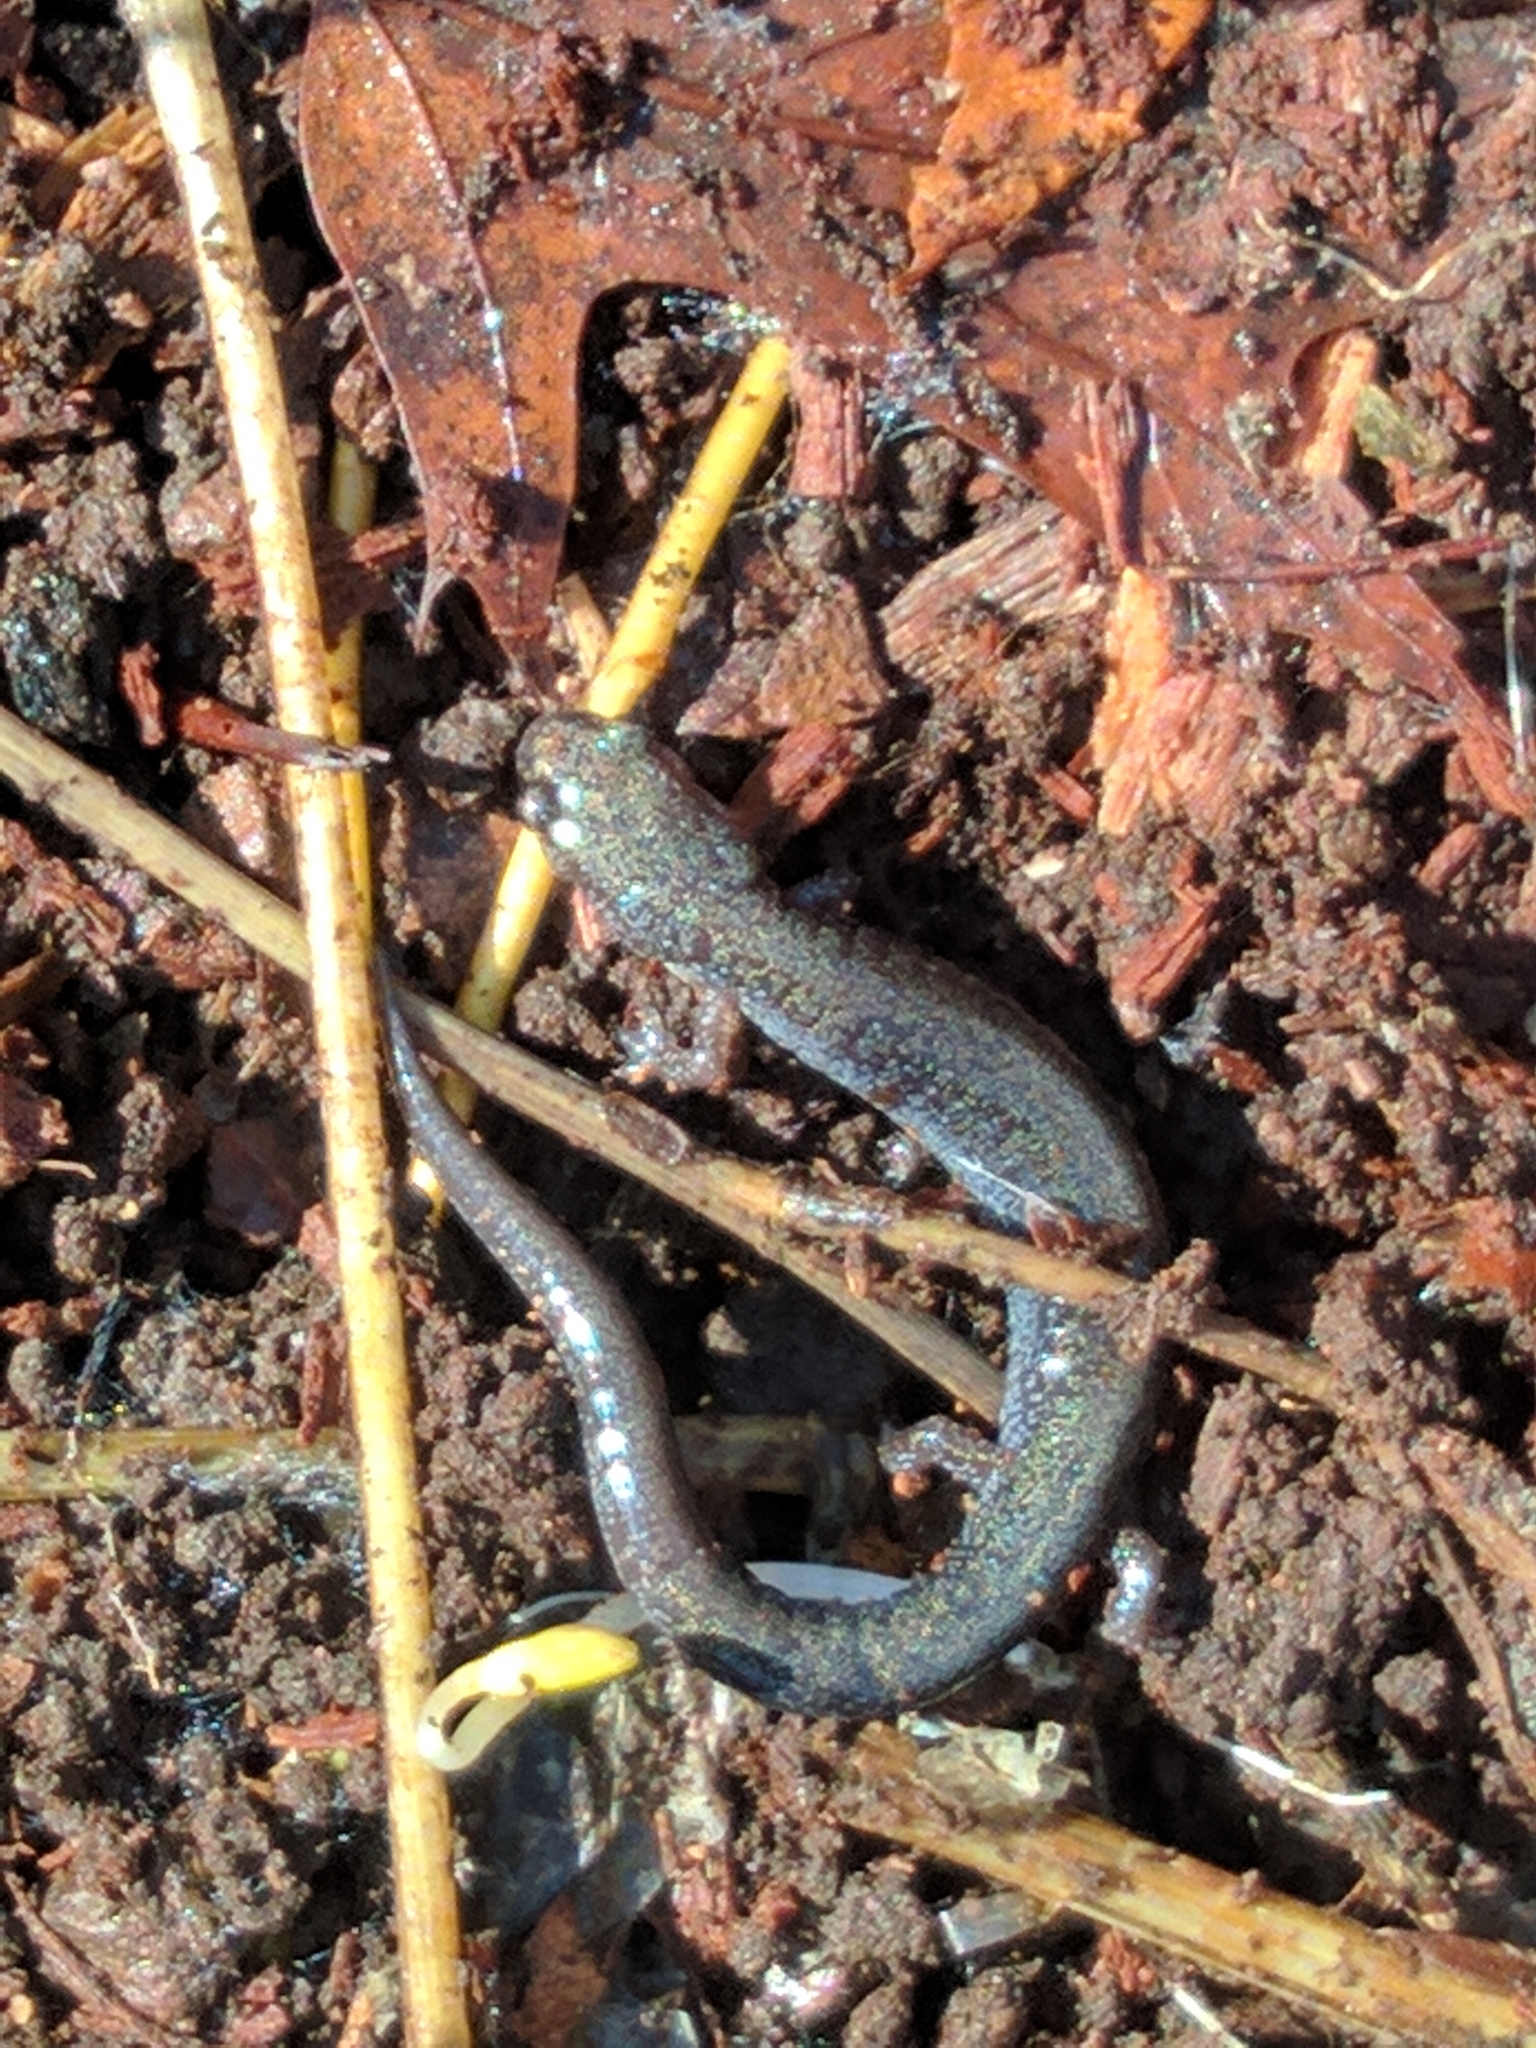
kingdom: Animalia
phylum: Chordata
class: Amphibia
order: Caudata
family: Plethodontidae
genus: Plethodon
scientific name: Plethodon cinereus
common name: Redback salamander
